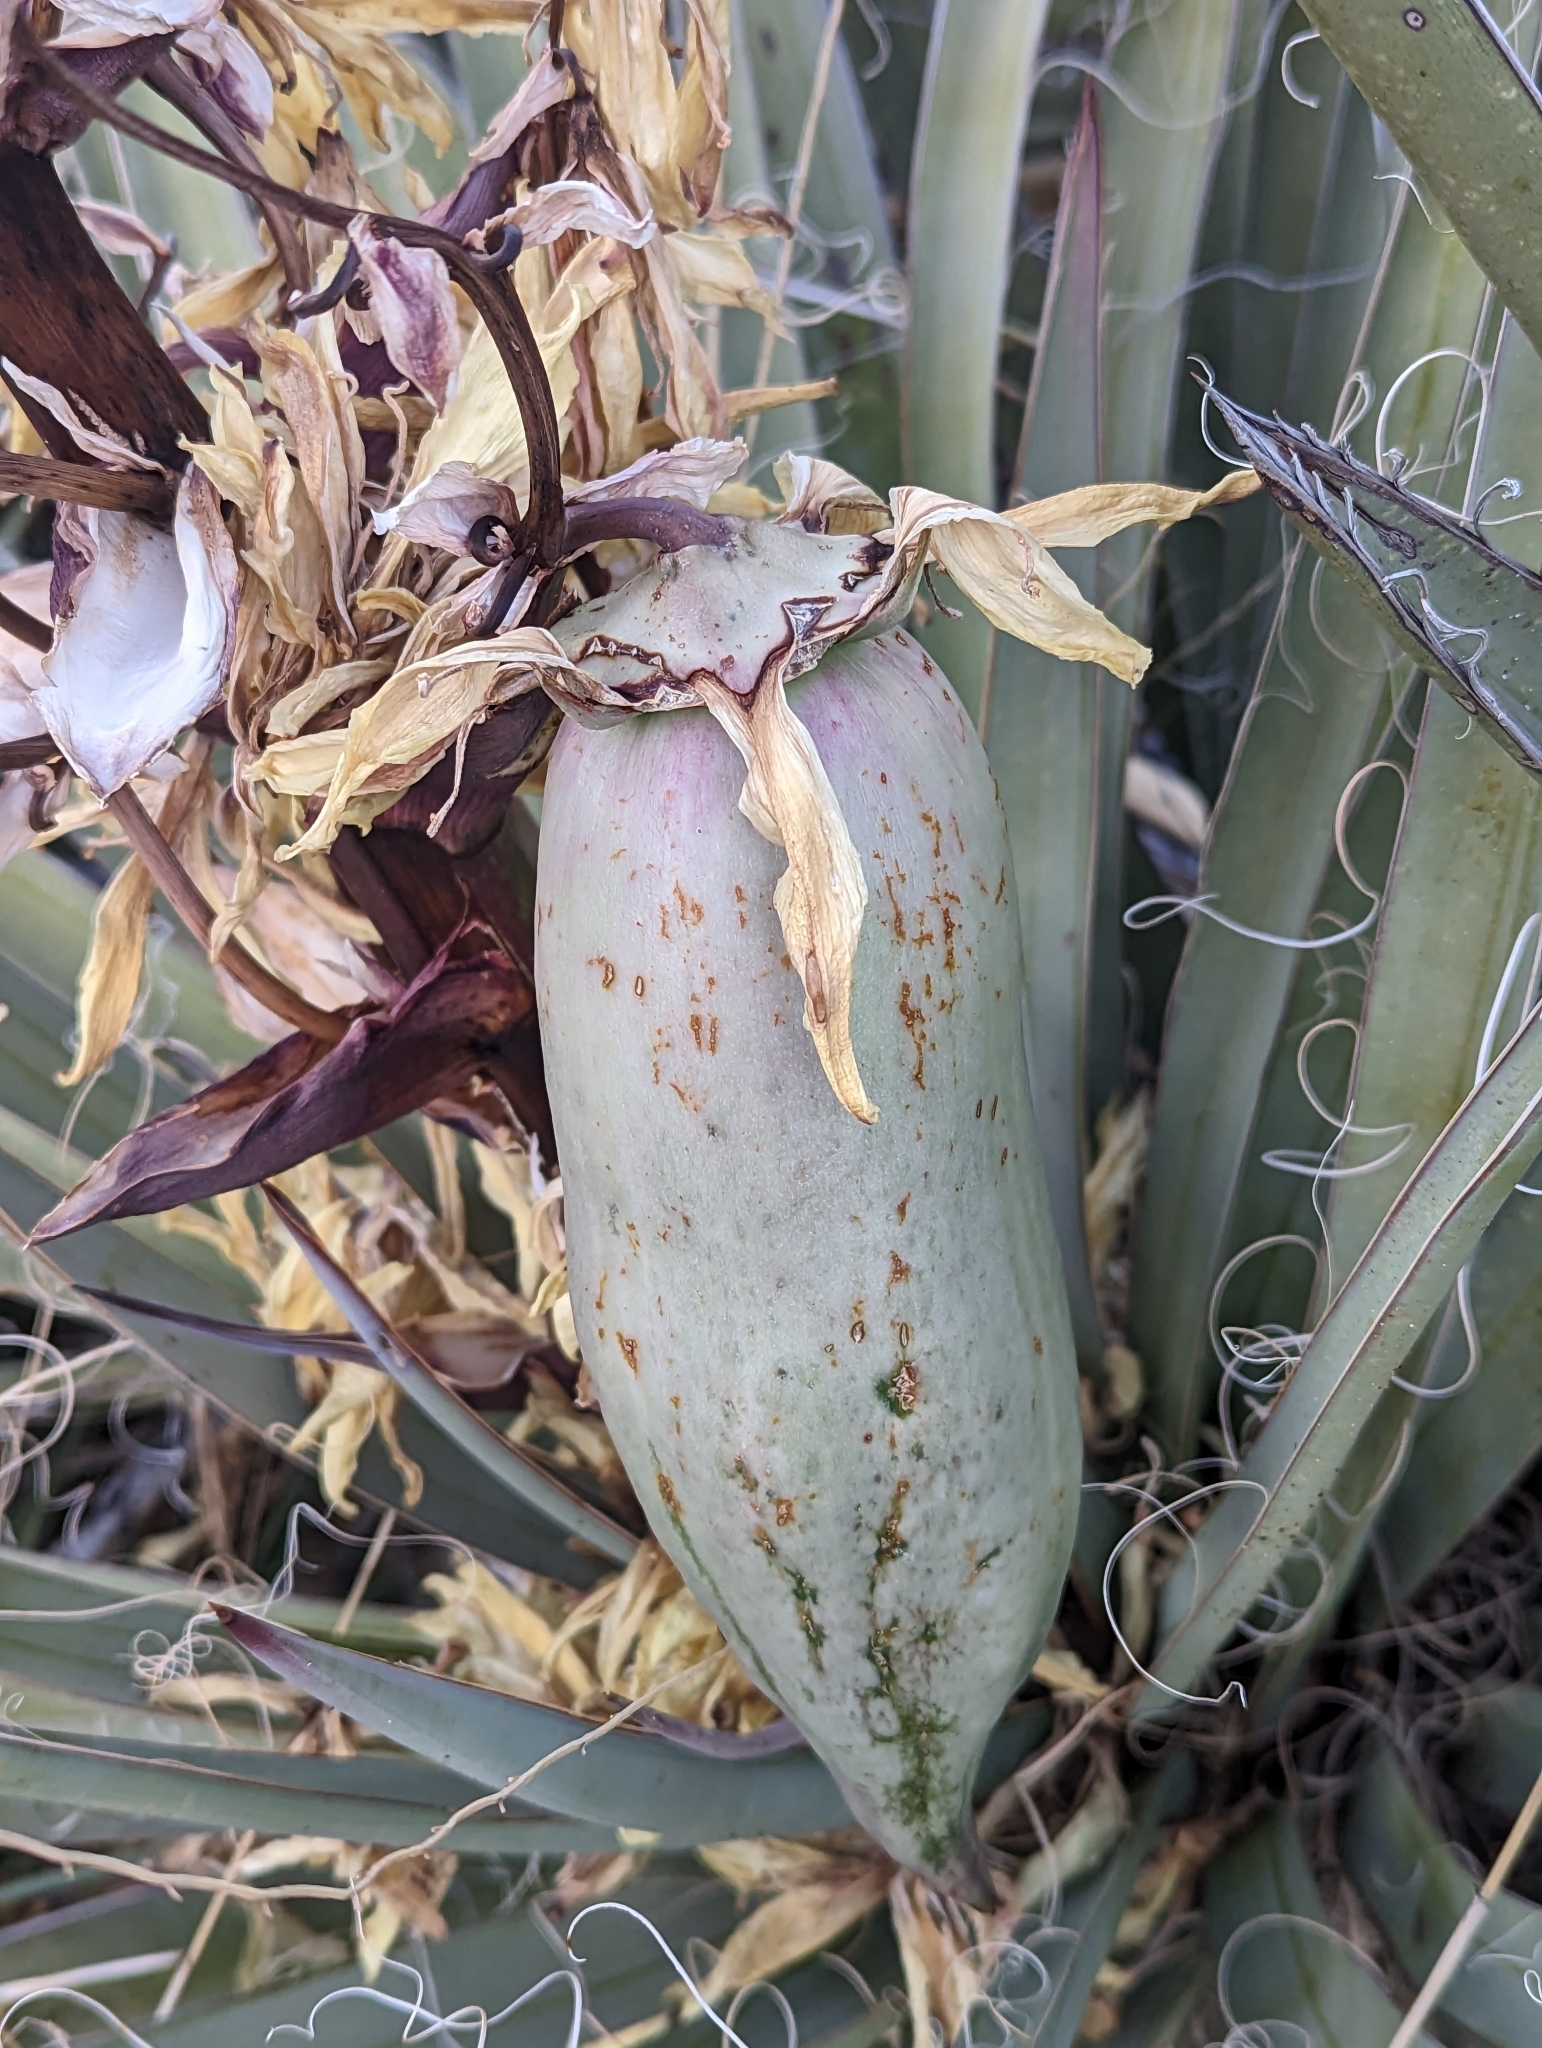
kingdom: Plantae
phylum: Tracheophyta
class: Liliopsida
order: Asparagales
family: Asparagaceae
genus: Yucca
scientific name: Yucca baccata
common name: Banana yucca
